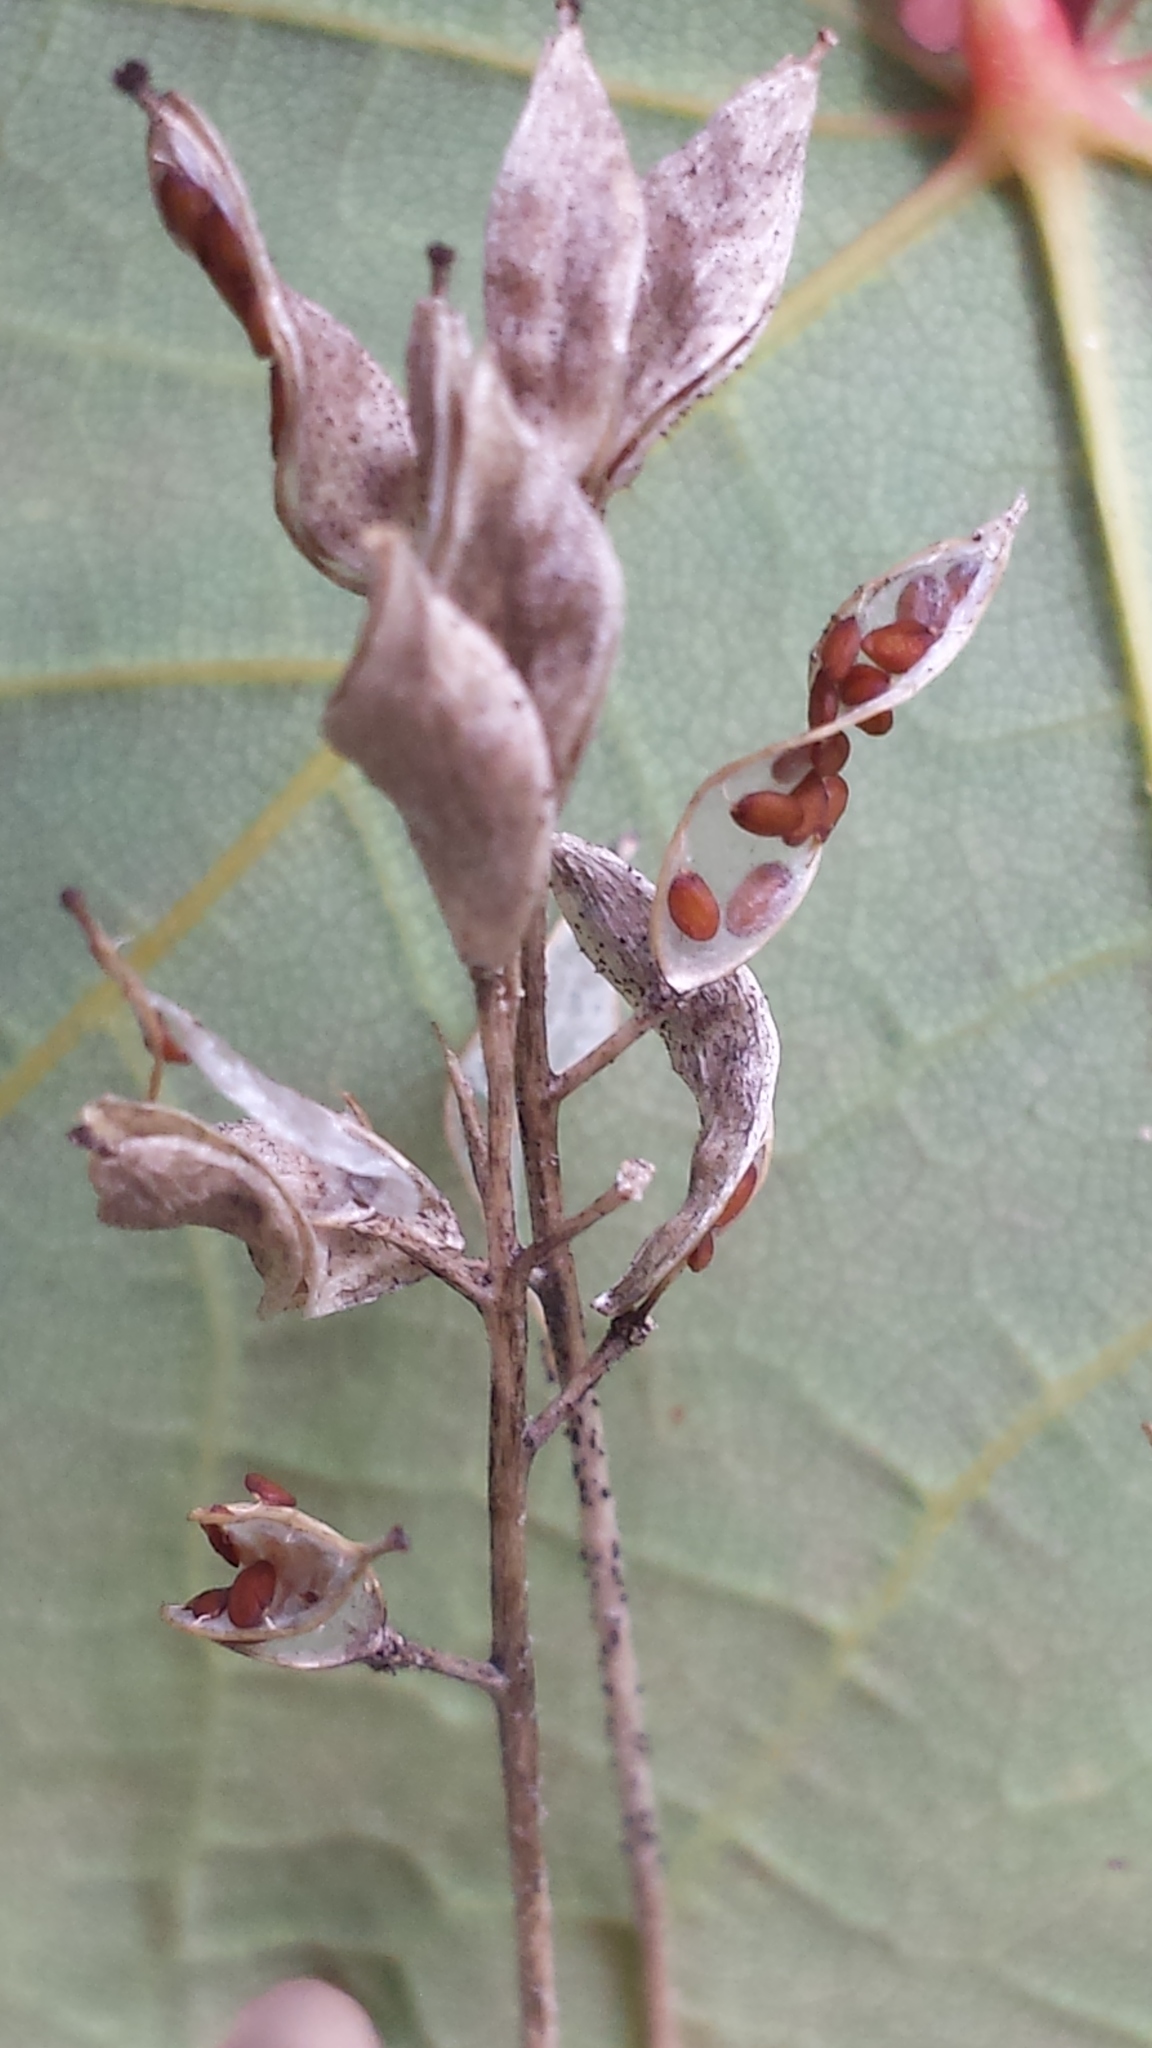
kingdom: Plantae
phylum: Tracheophyta
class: Magnoliopsida
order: Brassicales
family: Brassicaceae
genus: Draba
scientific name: Draba arabisans
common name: Rock draba
